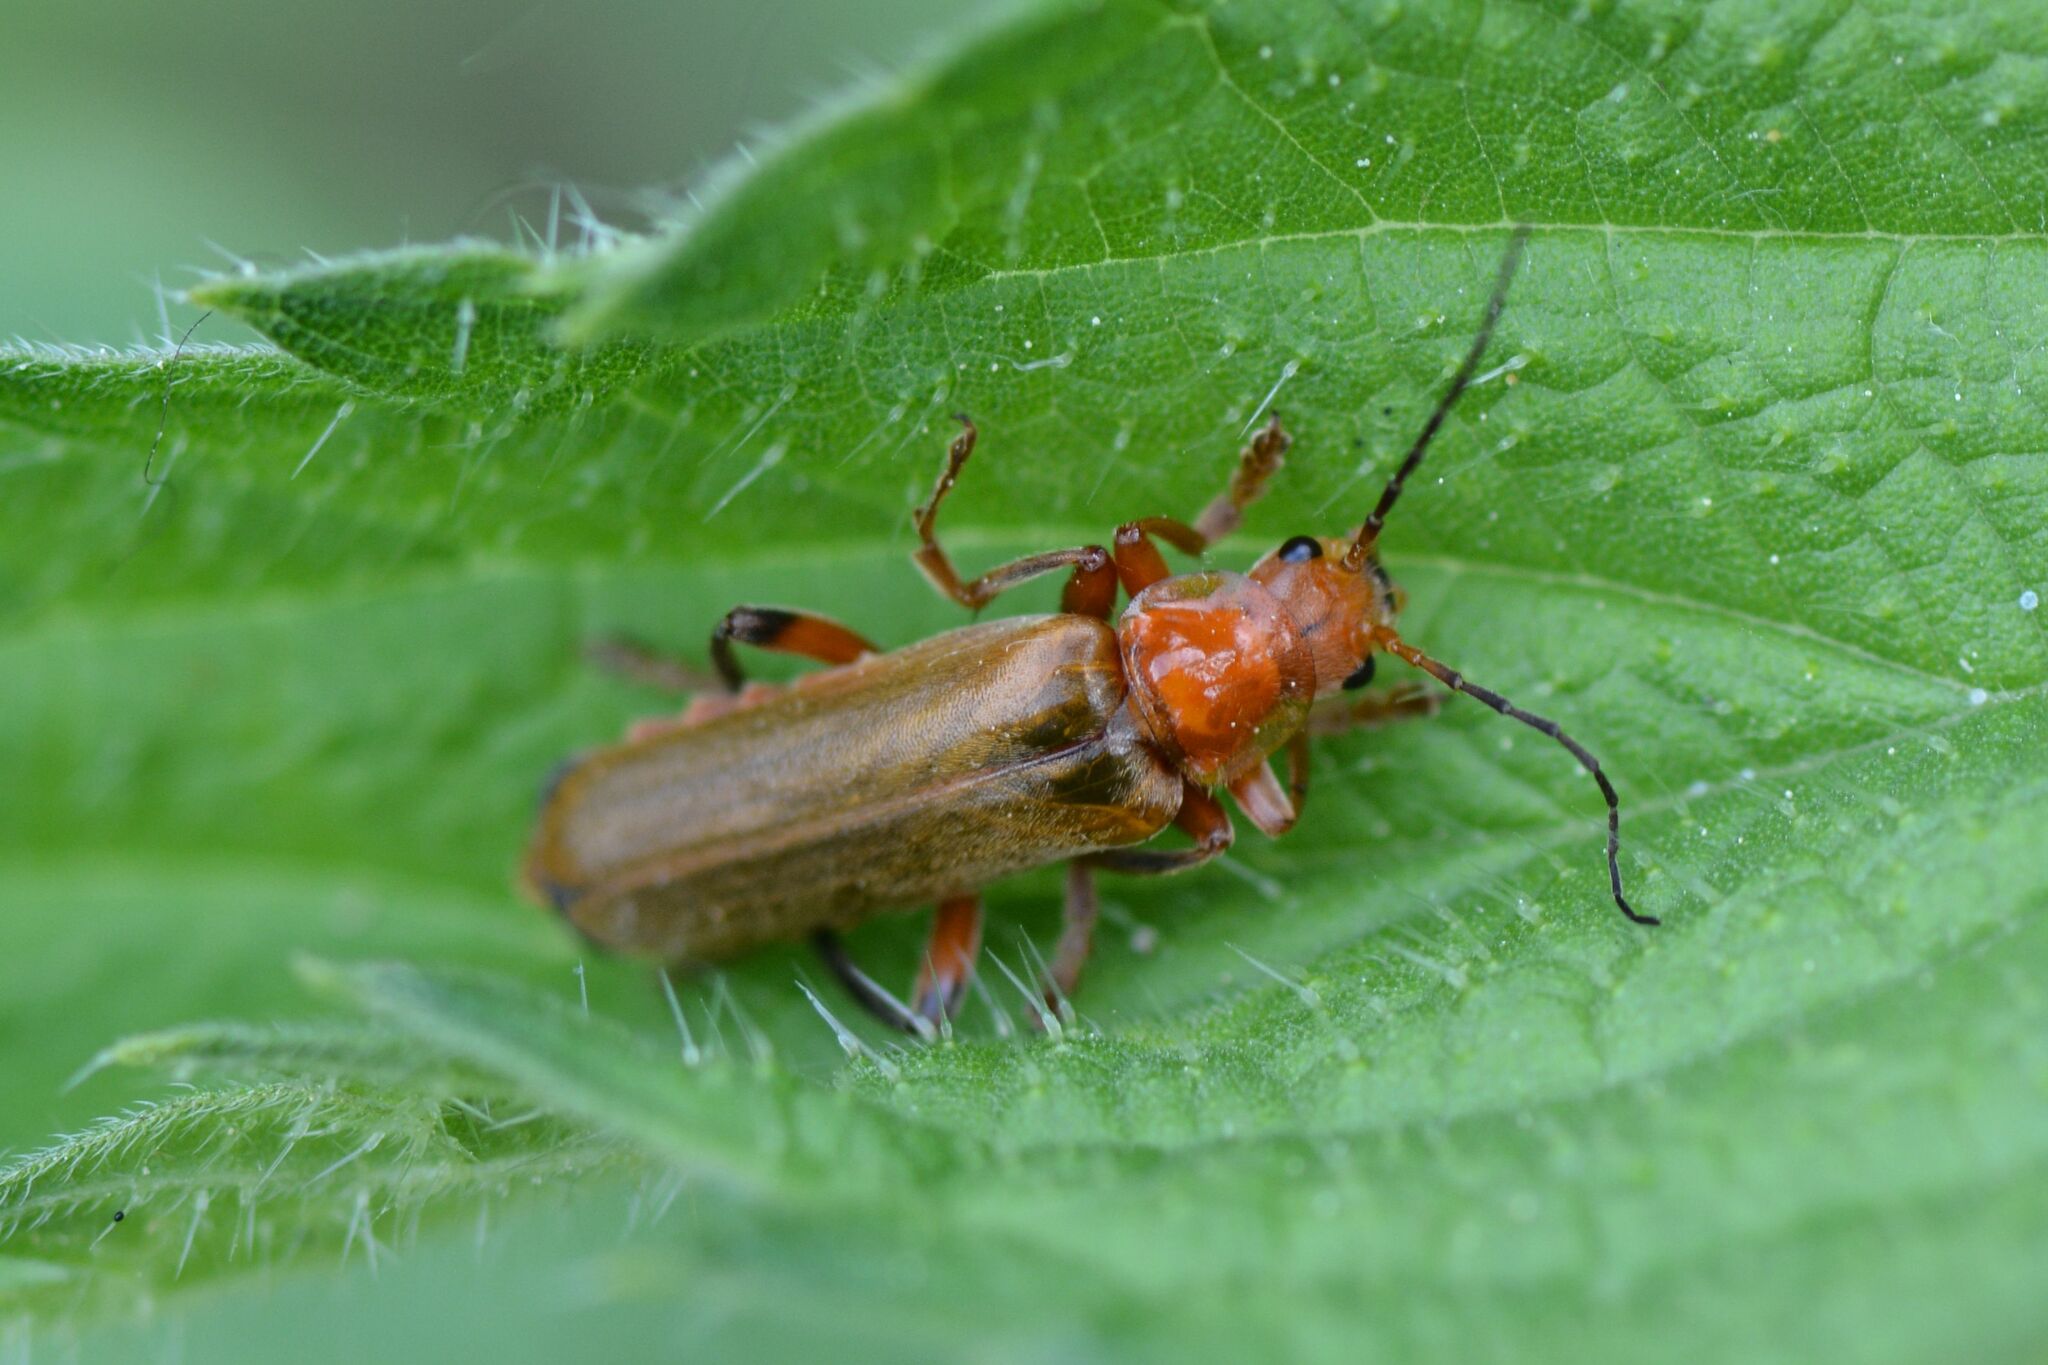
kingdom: Animalia
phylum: Arthropoda
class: Insecta
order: Coleoptera
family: Cantharidae
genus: Cantharis
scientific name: Cantharis livida
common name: Livid soldier beetle
